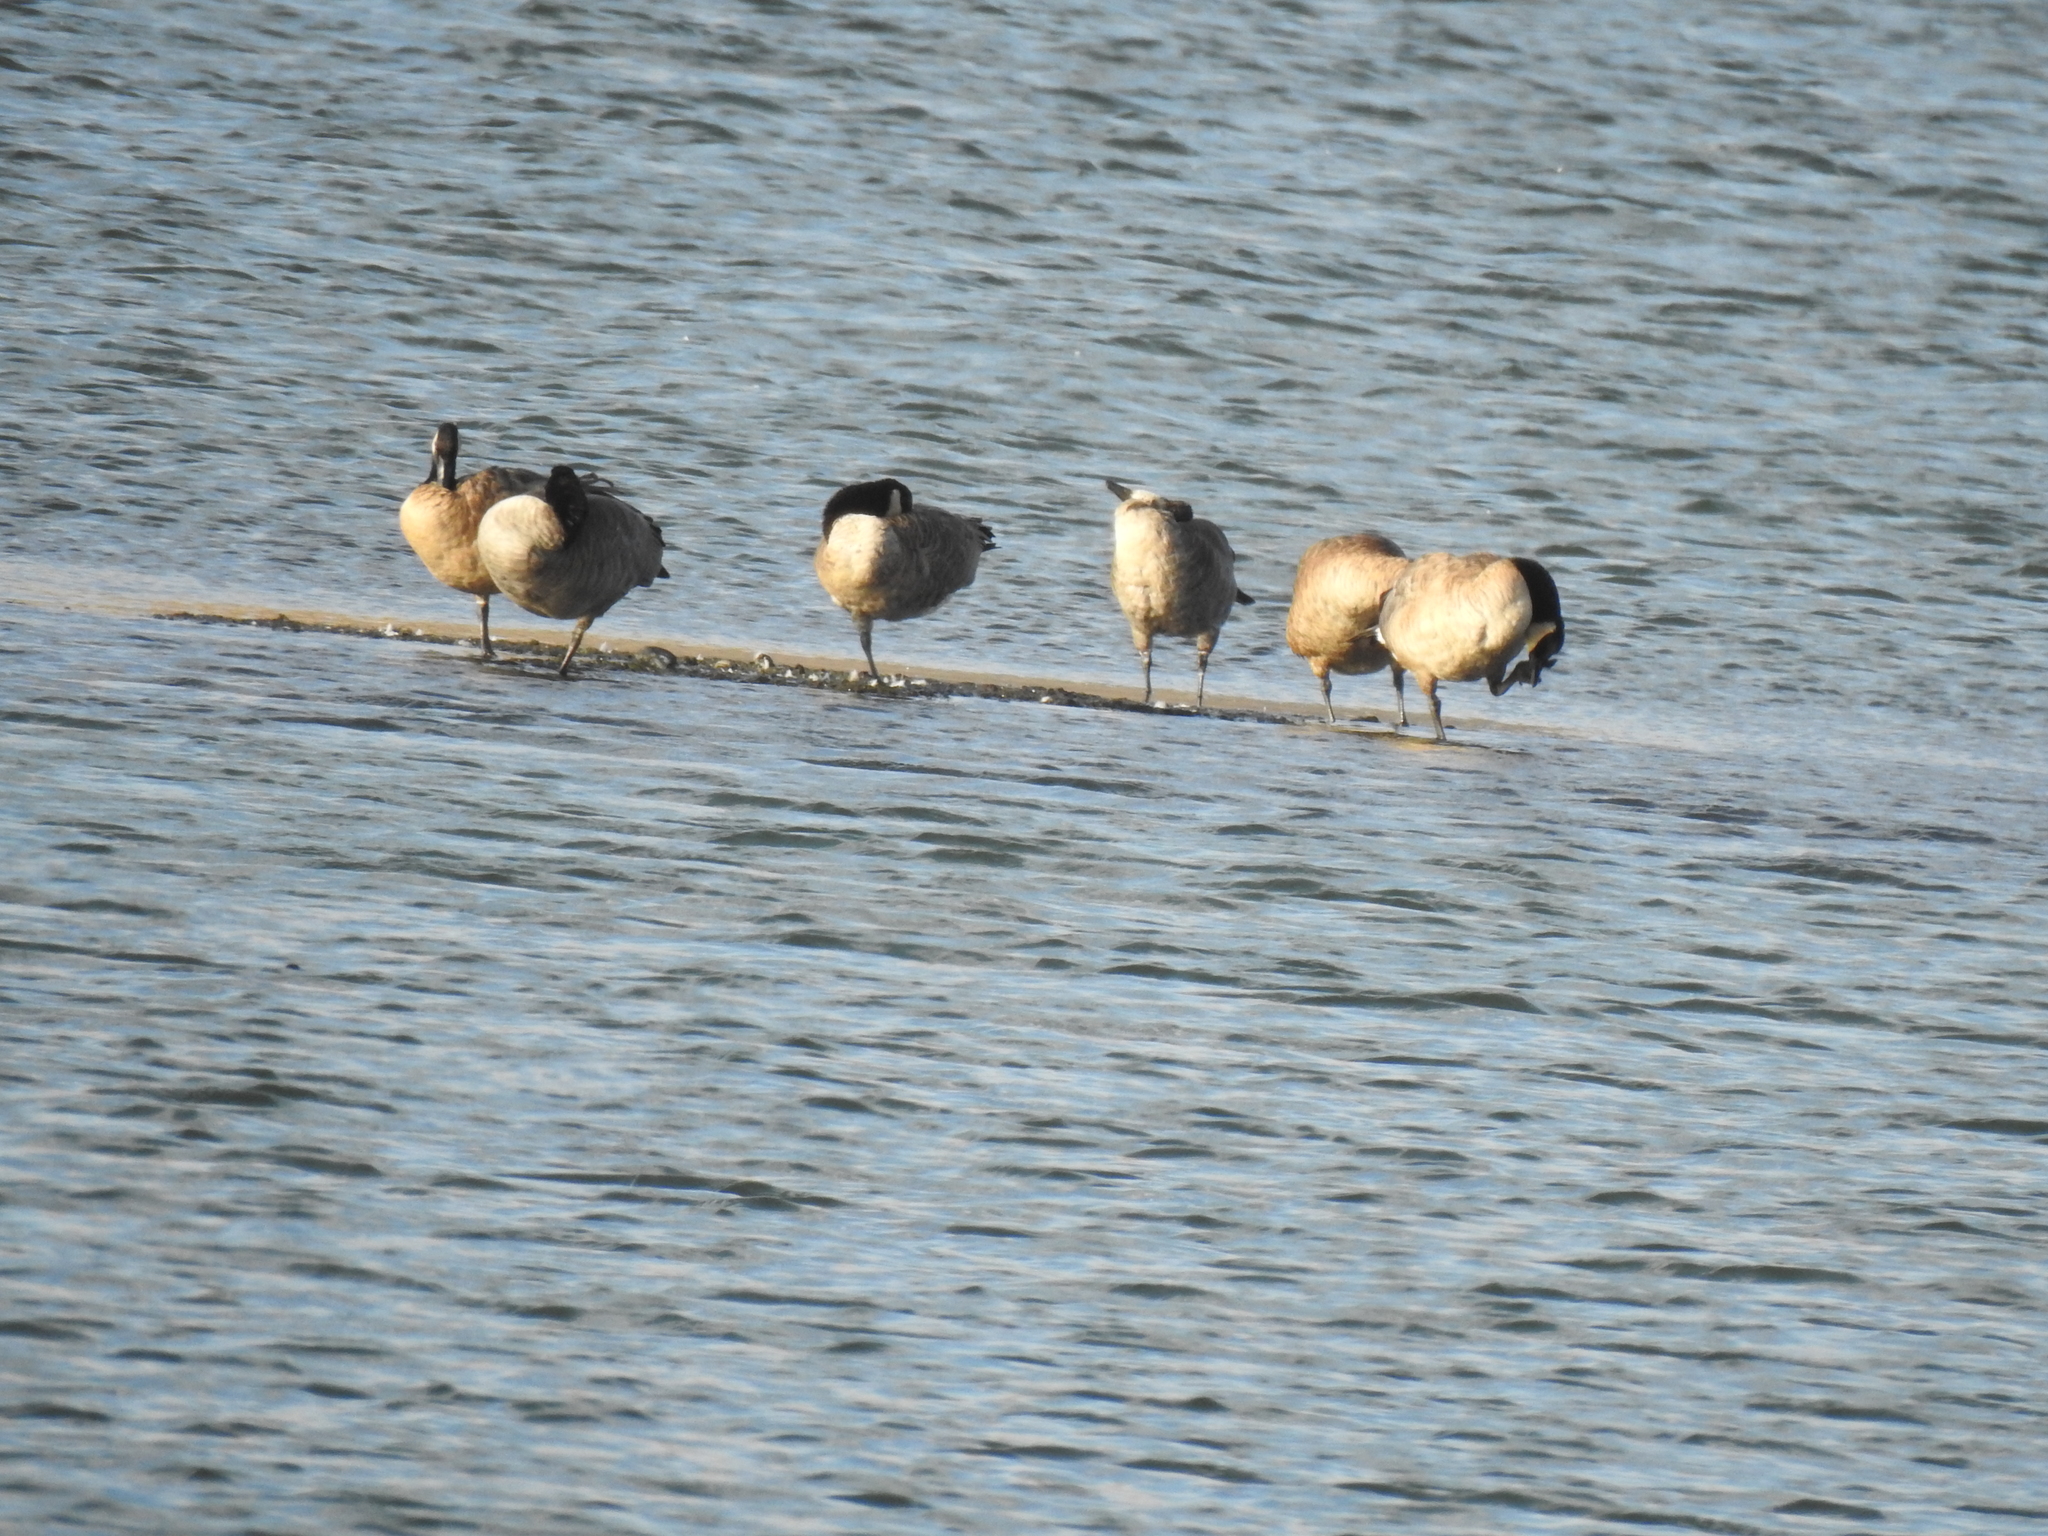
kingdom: Animalia
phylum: Chordata
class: Aves
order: Anseriformes
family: Anatidae
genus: Branta
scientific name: Branta canadensis
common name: Canada goose
